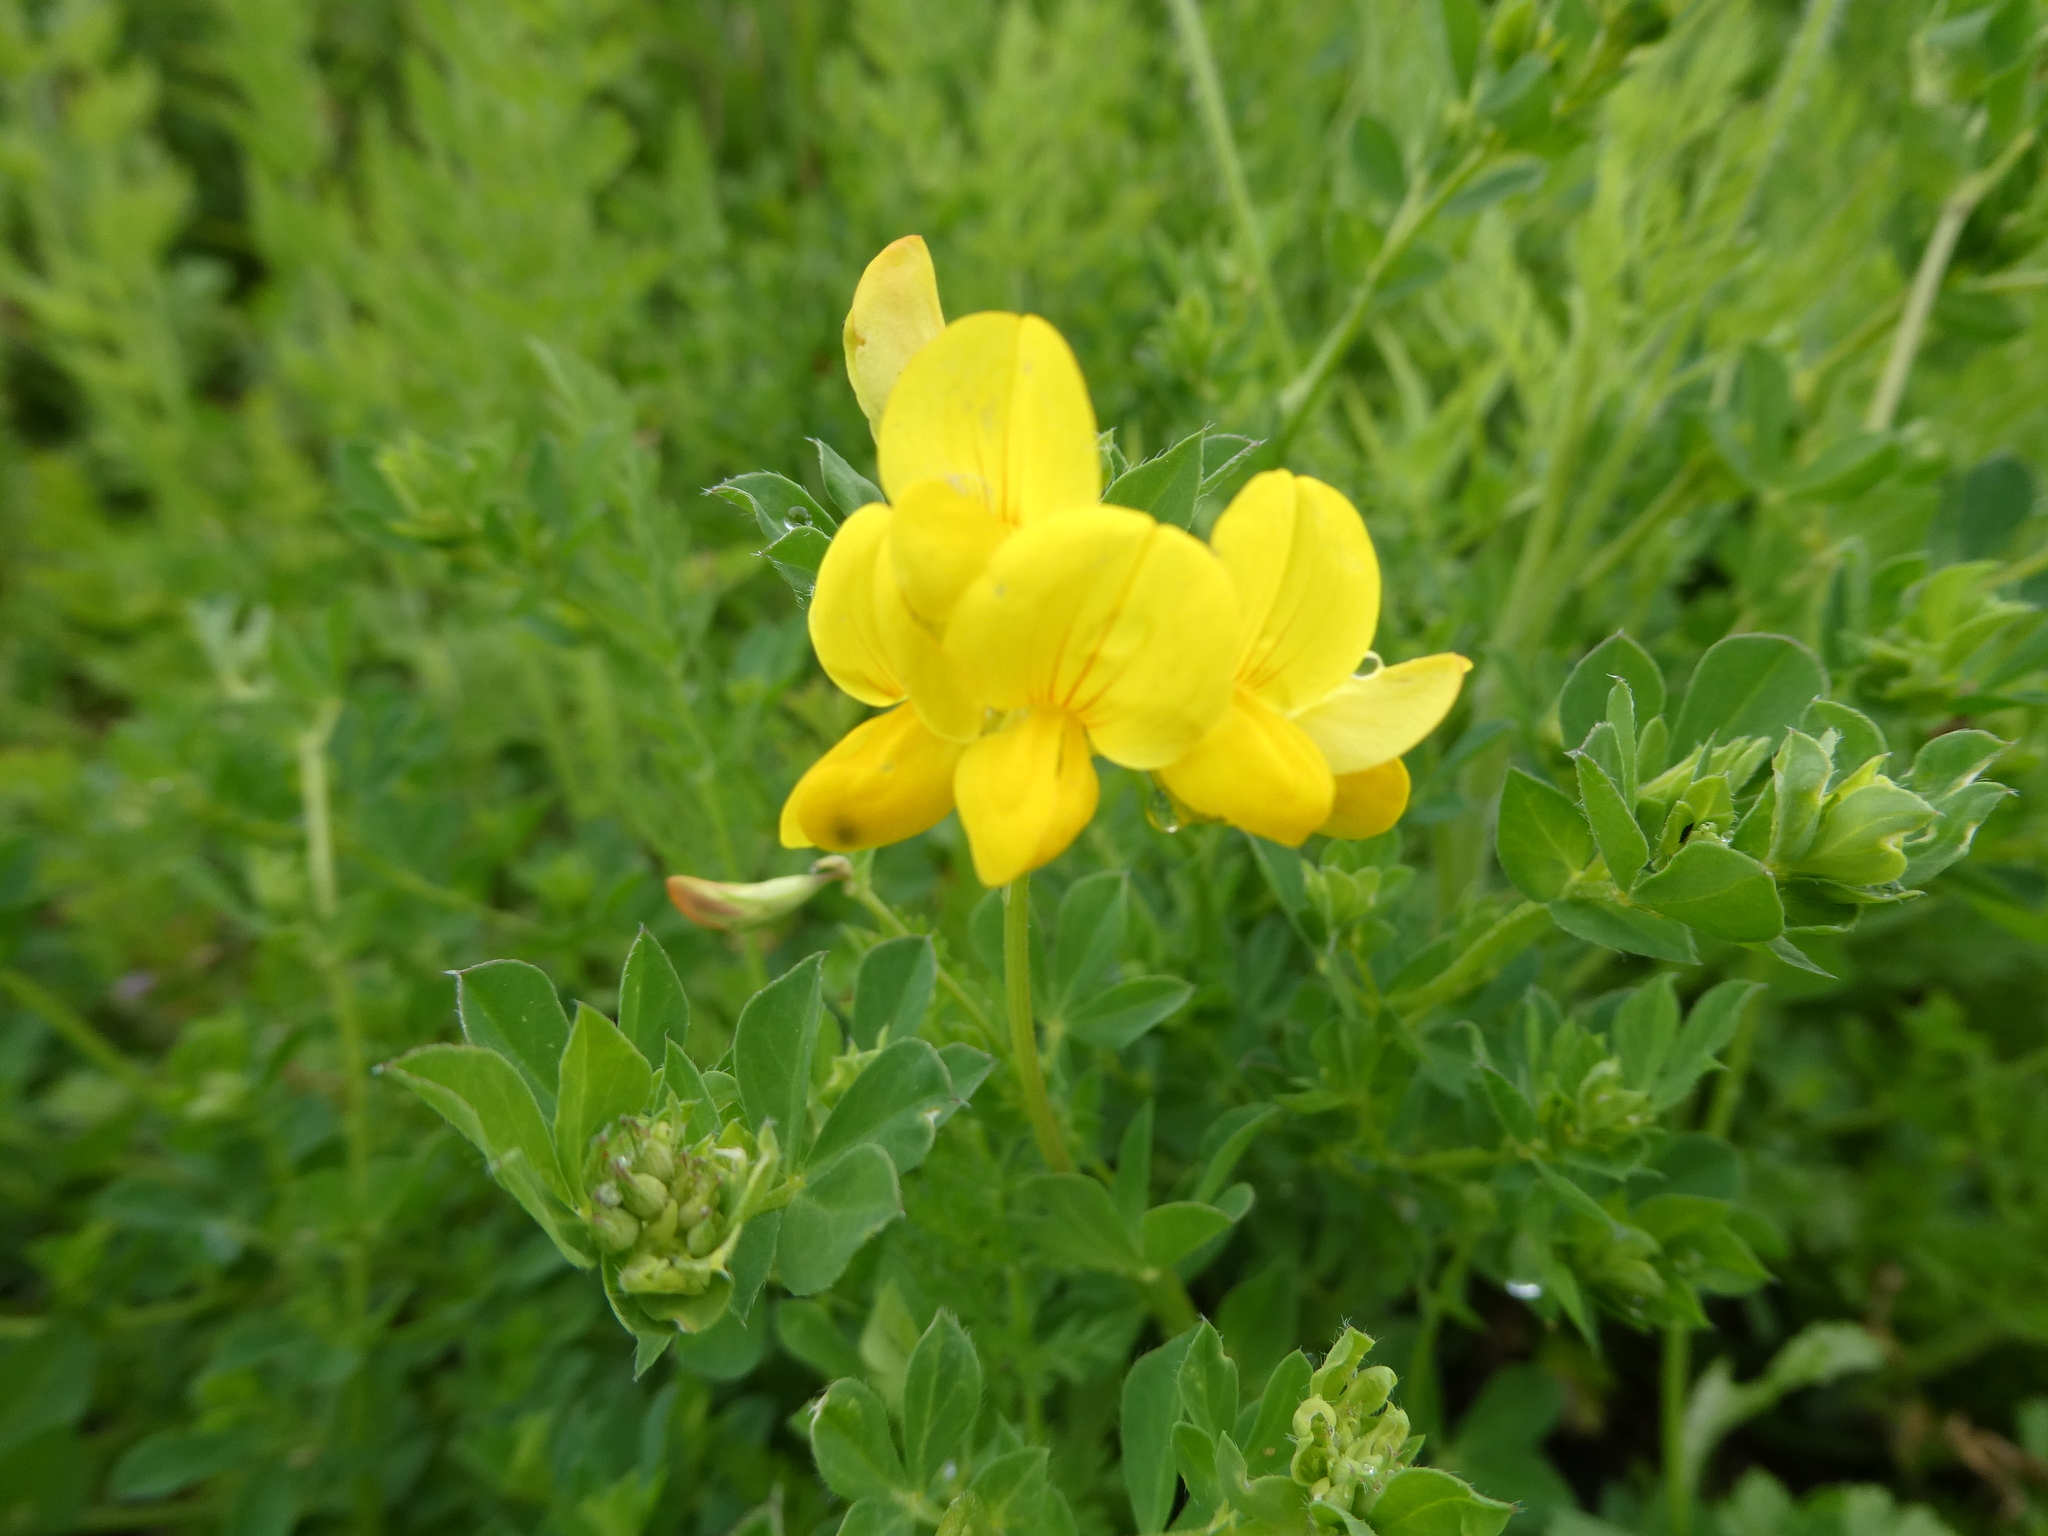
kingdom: Plantae
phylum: Tracheophyta
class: Magnoliopsida
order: Fabales
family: Fabaceae
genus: Lotus
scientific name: Lotus corniculatus
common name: Common bird's-foot-trefoil
